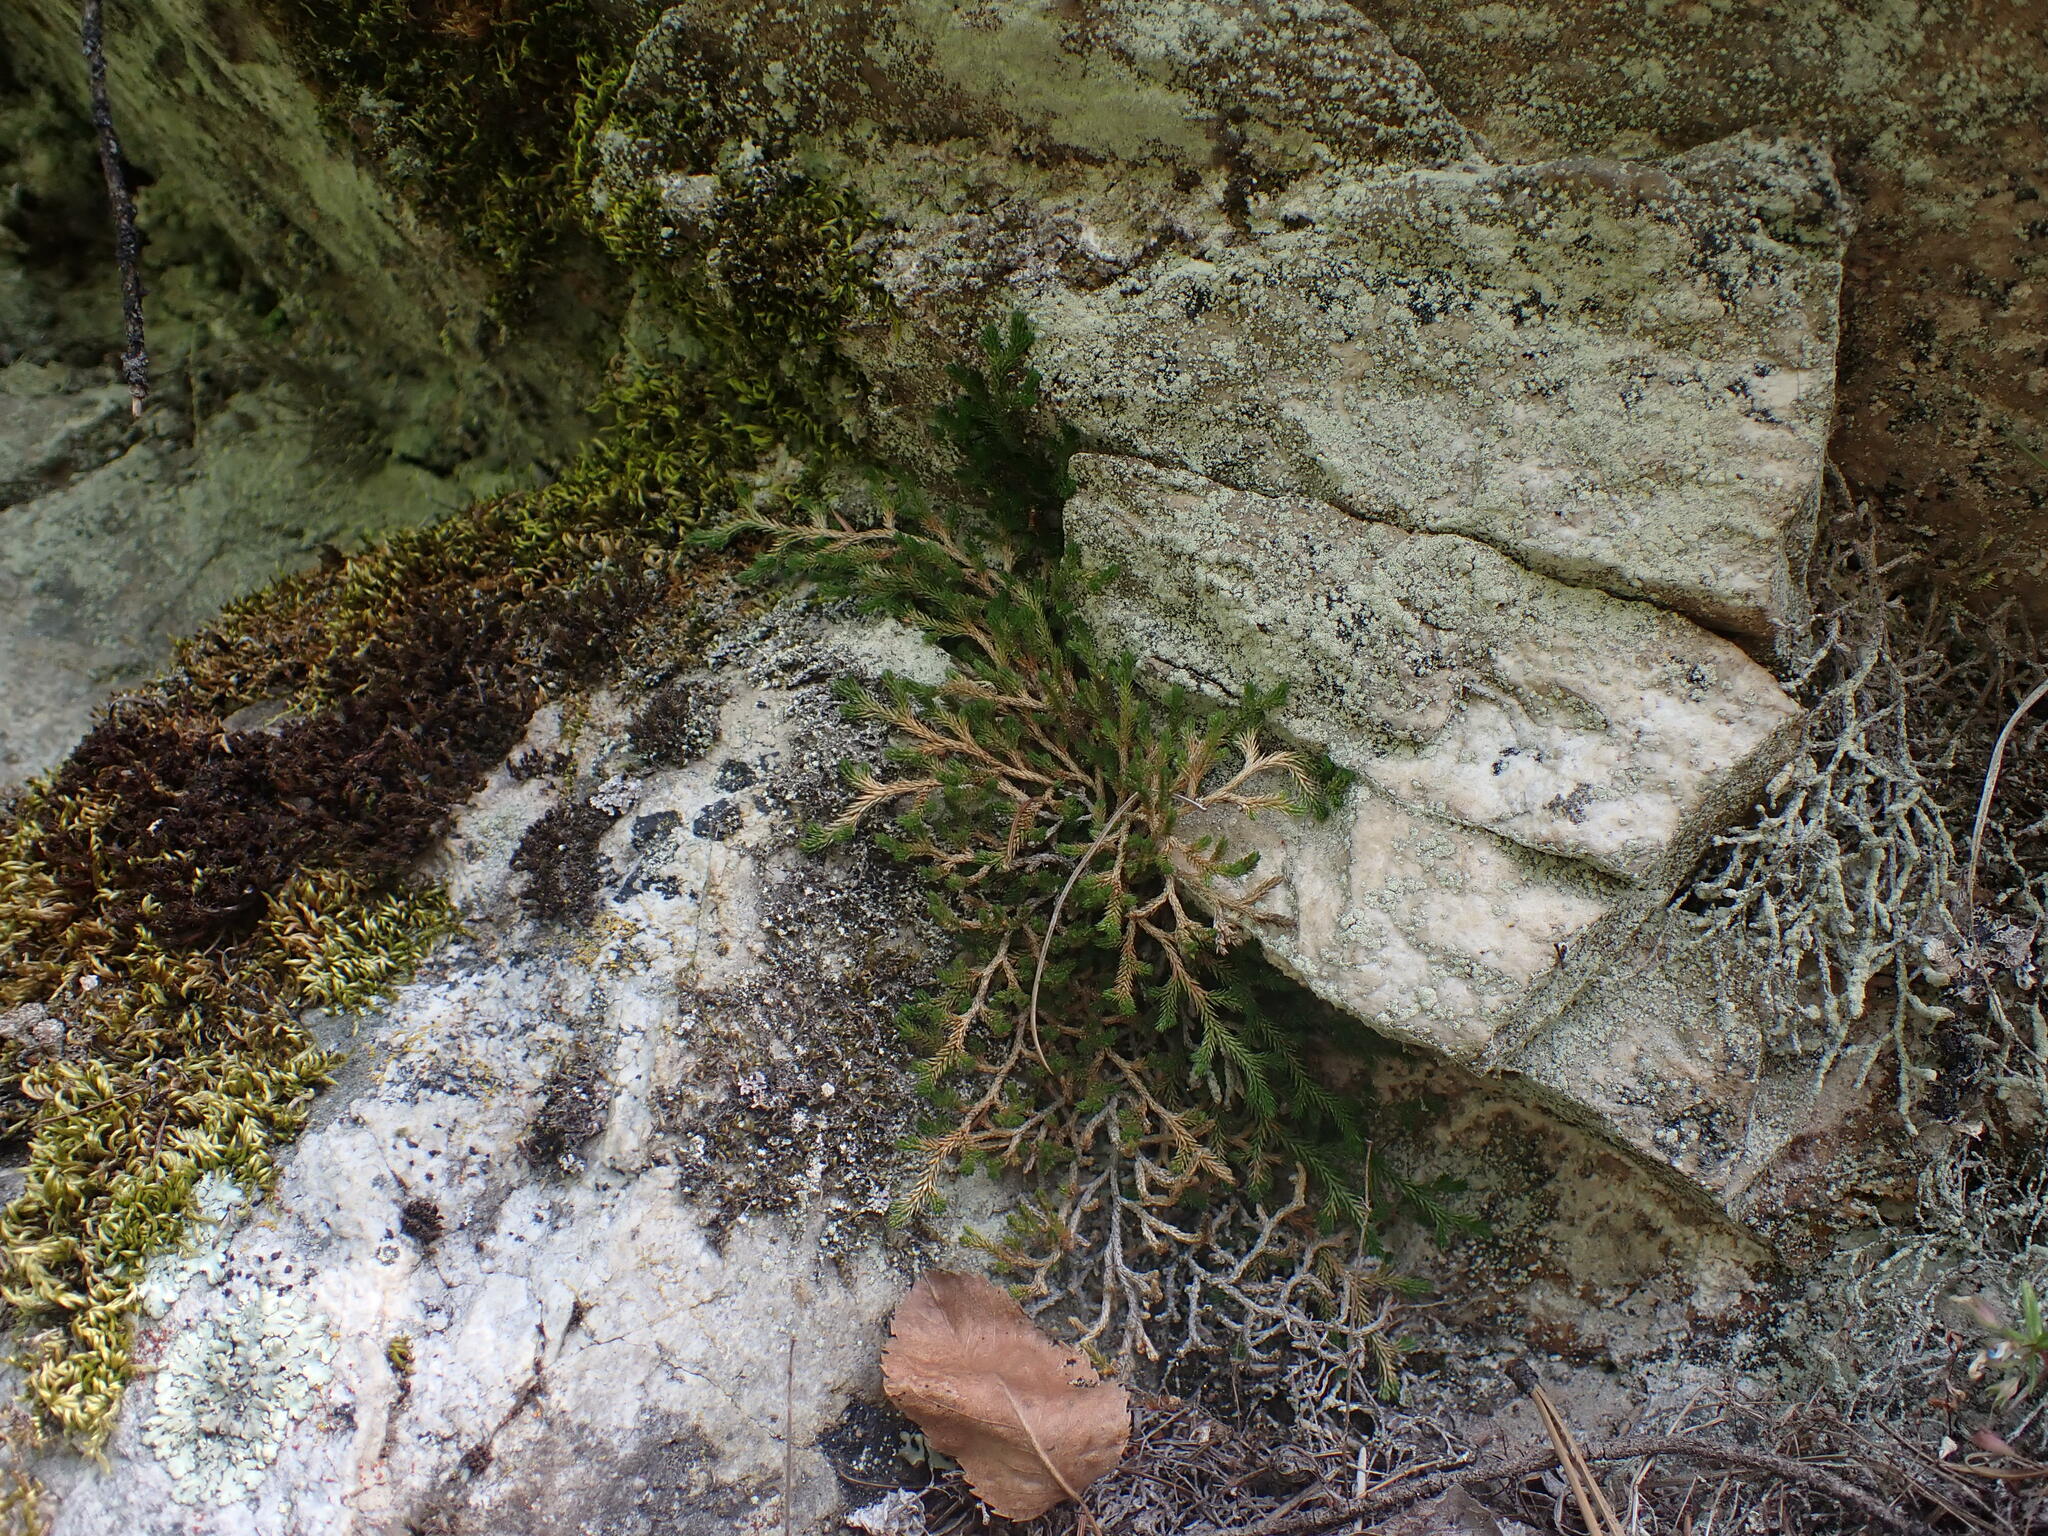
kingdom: Plantae
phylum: Tracheophyta
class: Lycopodiopsida
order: Selaginellales
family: Selaginellaceae
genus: Selaginella
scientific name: Selaginella wallacei
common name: Wallace's selaginella
